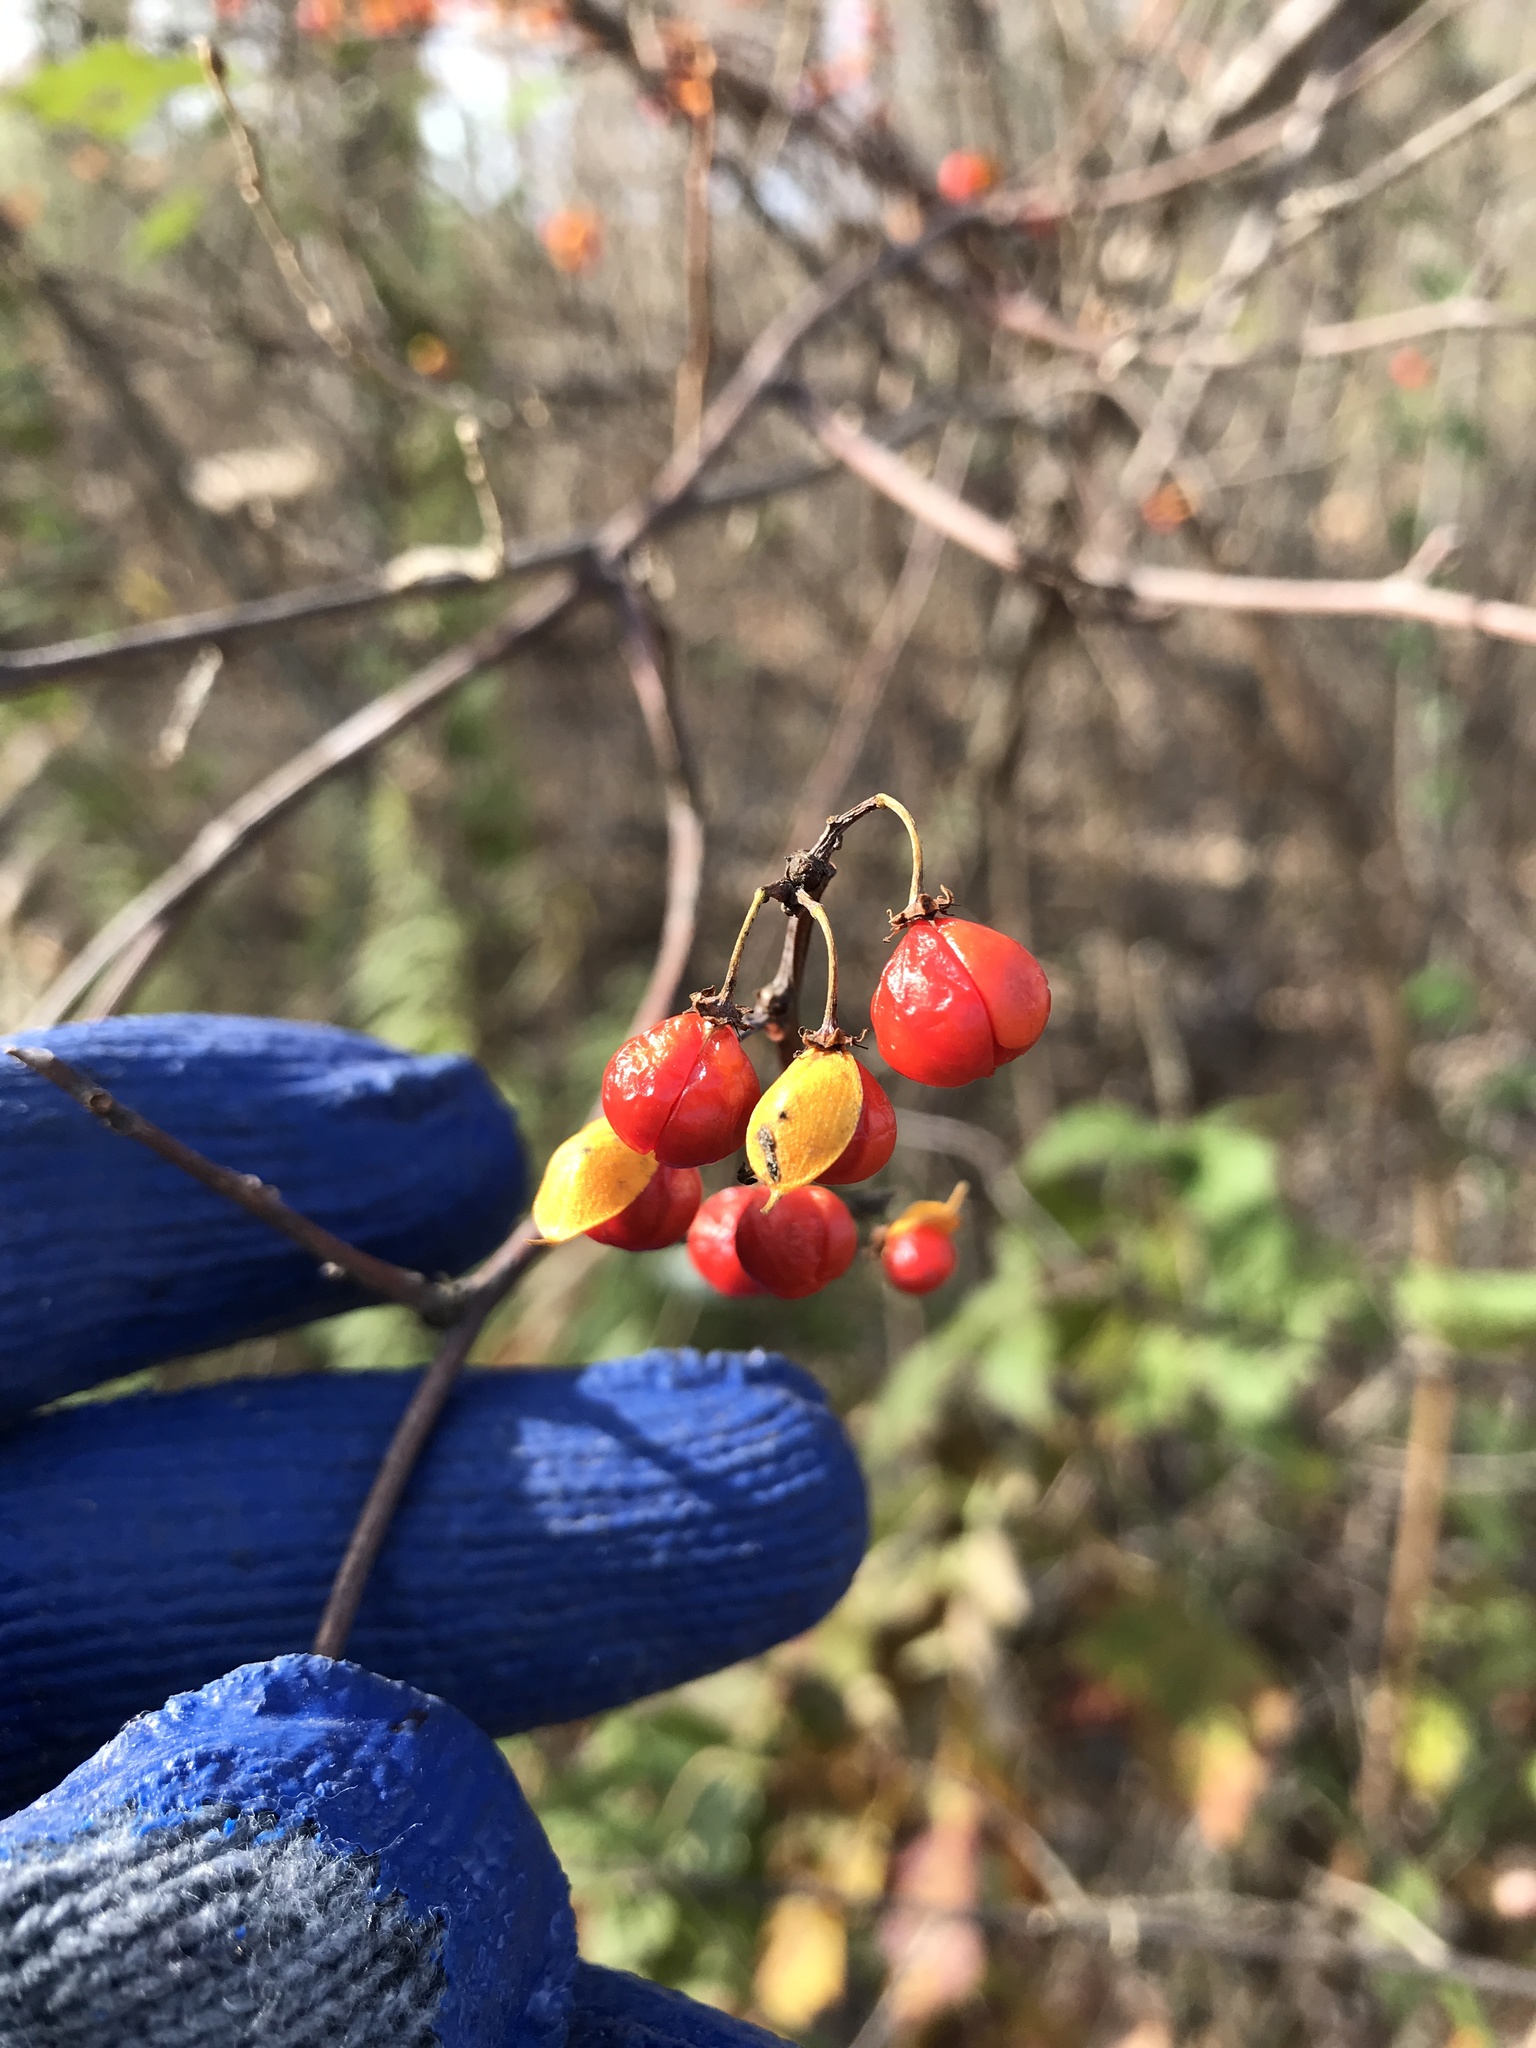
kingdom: Plantae
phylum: Tracheophyta
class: Magnoliopsida
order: Celastrales
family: Celastraceae
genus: Celastrus
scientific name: Celastrus orbiculatus
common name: Oriental bittersweet
